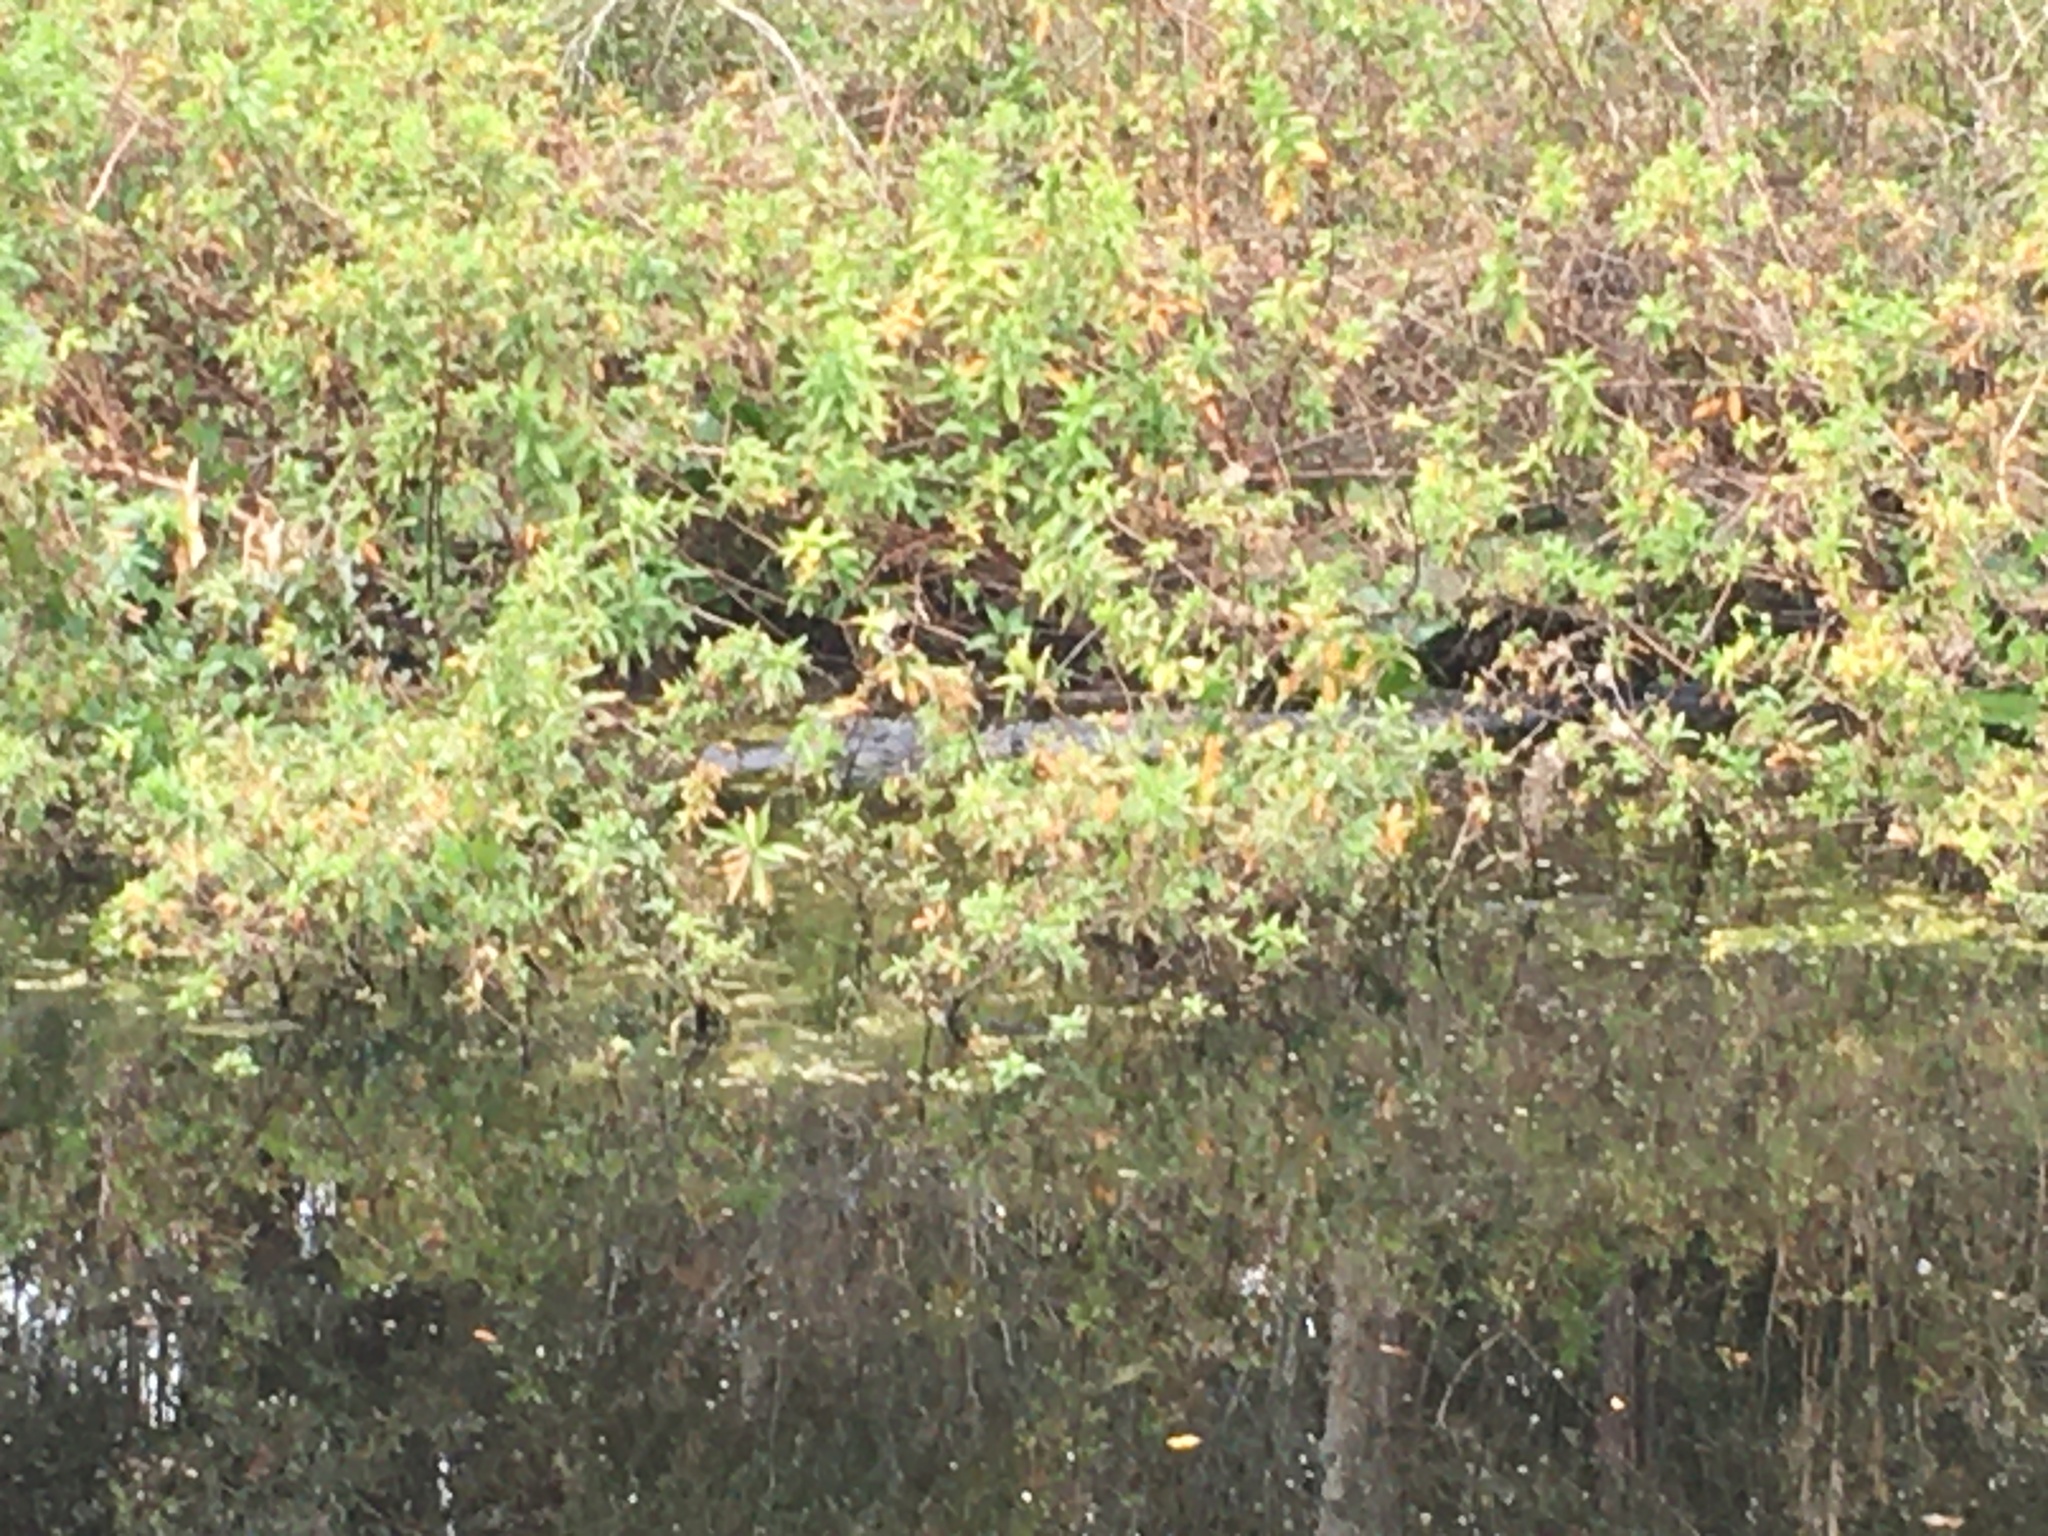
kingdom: Animalia
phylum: Chordata
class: Crocodylia
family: Alligatoridae
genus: Alligator
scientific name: Alligator mississippiensis
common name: American alligator
